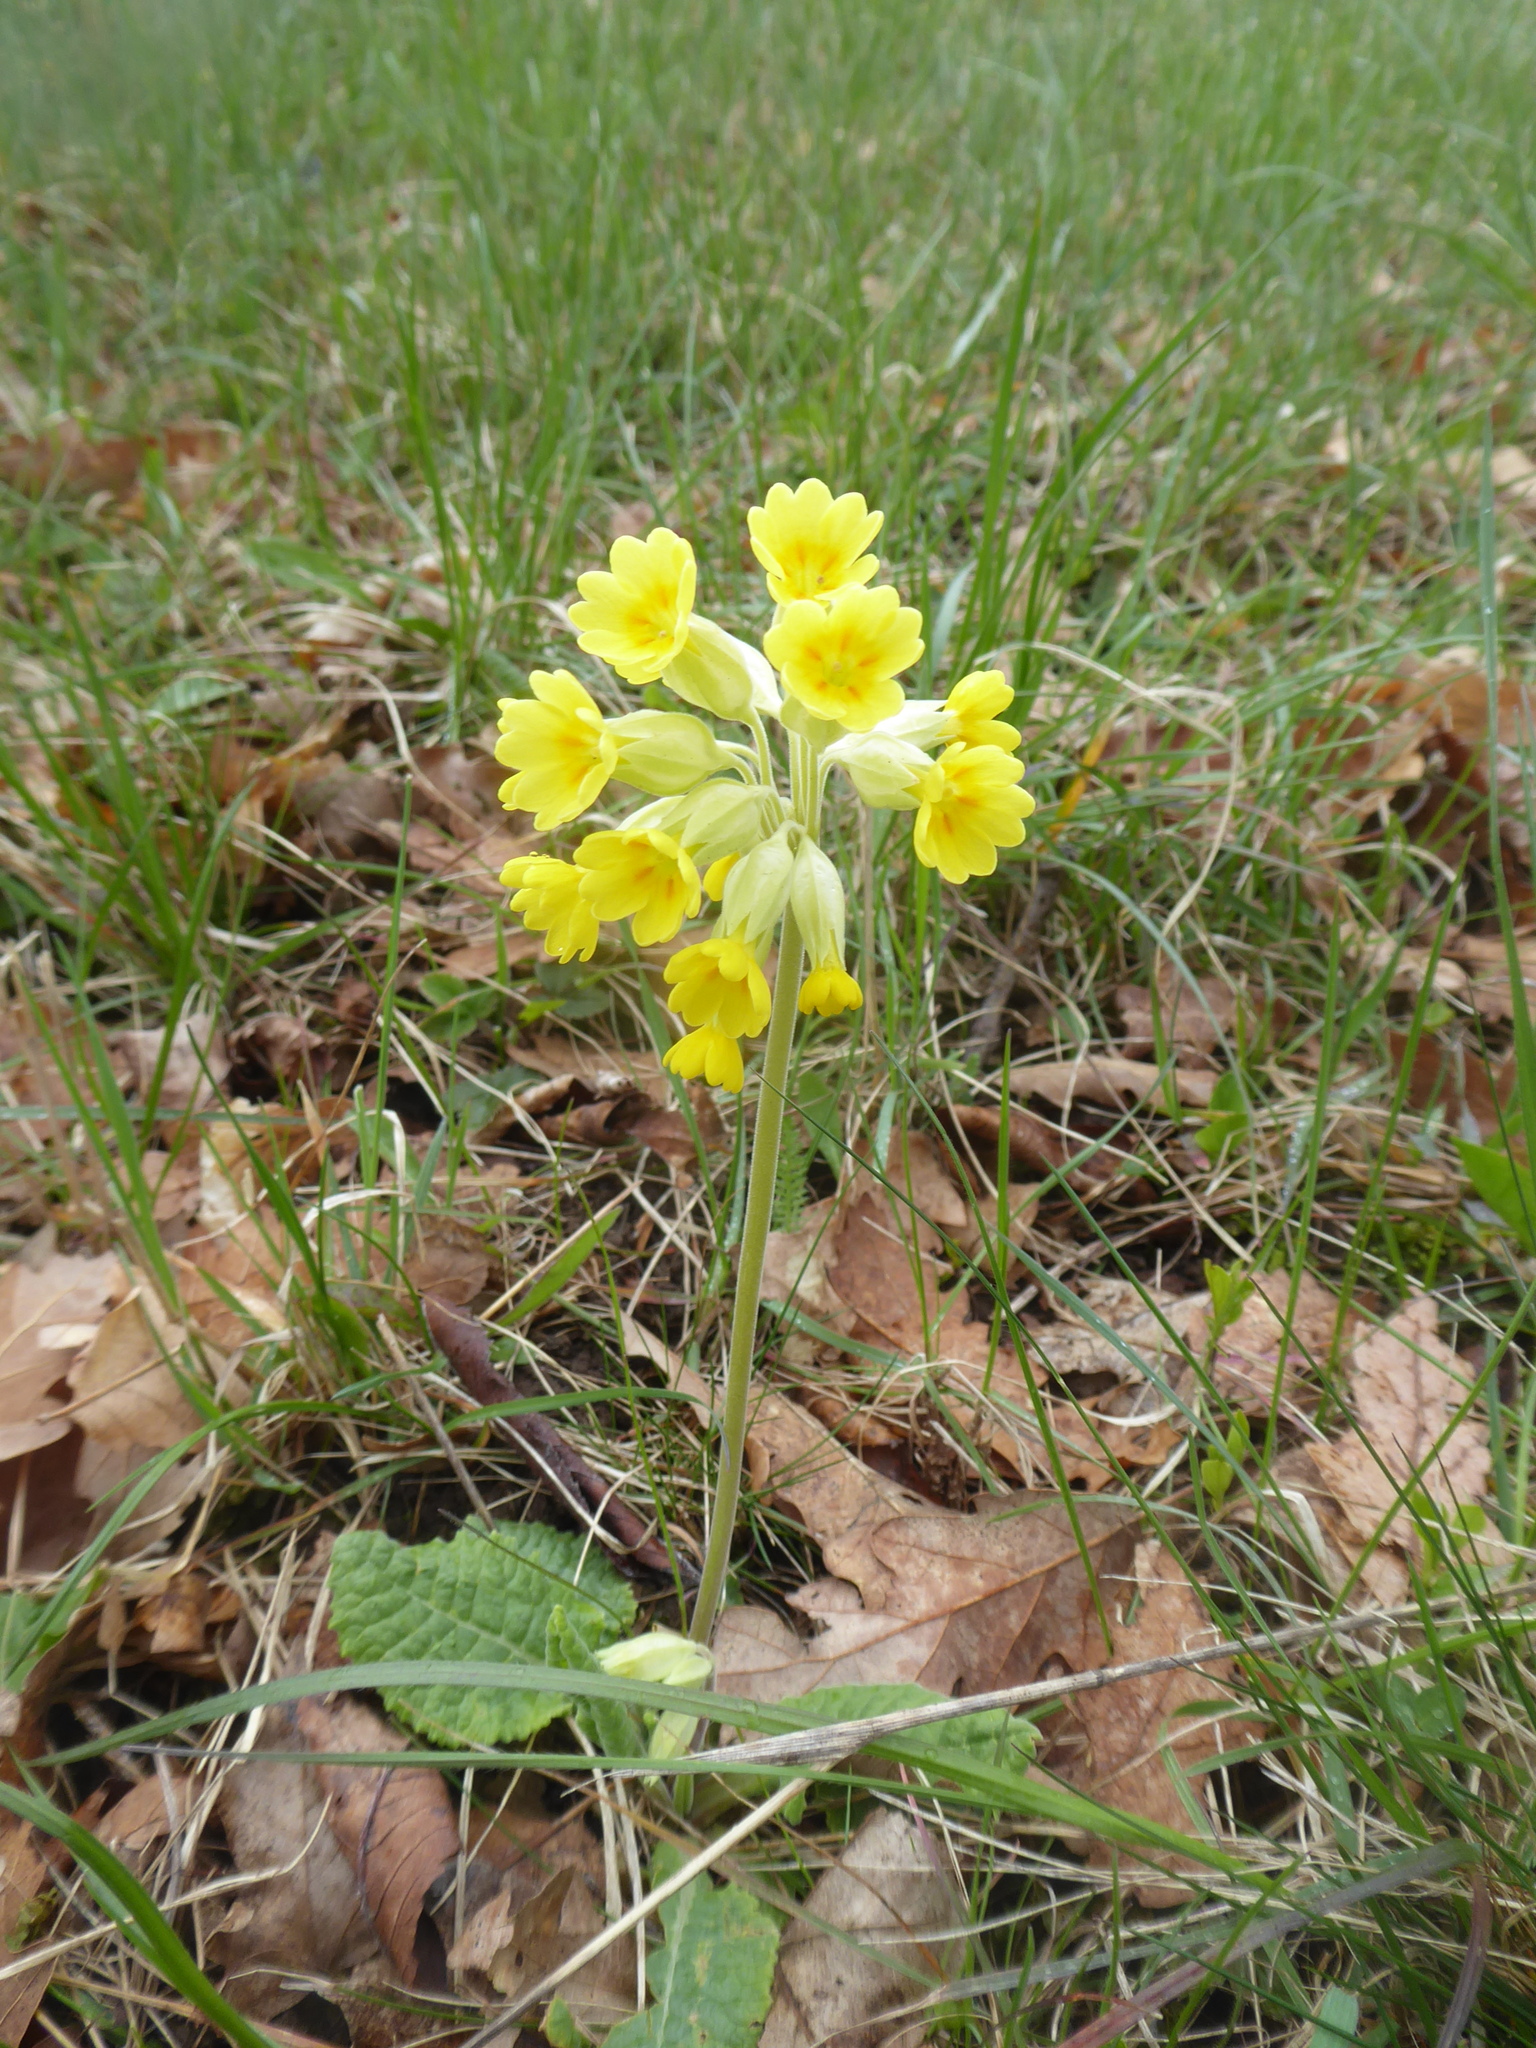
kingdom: Plantae
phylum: Tracheophyta
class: Magnoliopsida
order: Ericales
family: Primulaceae
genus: Primula
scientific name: Primula veris
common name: Cowslip
